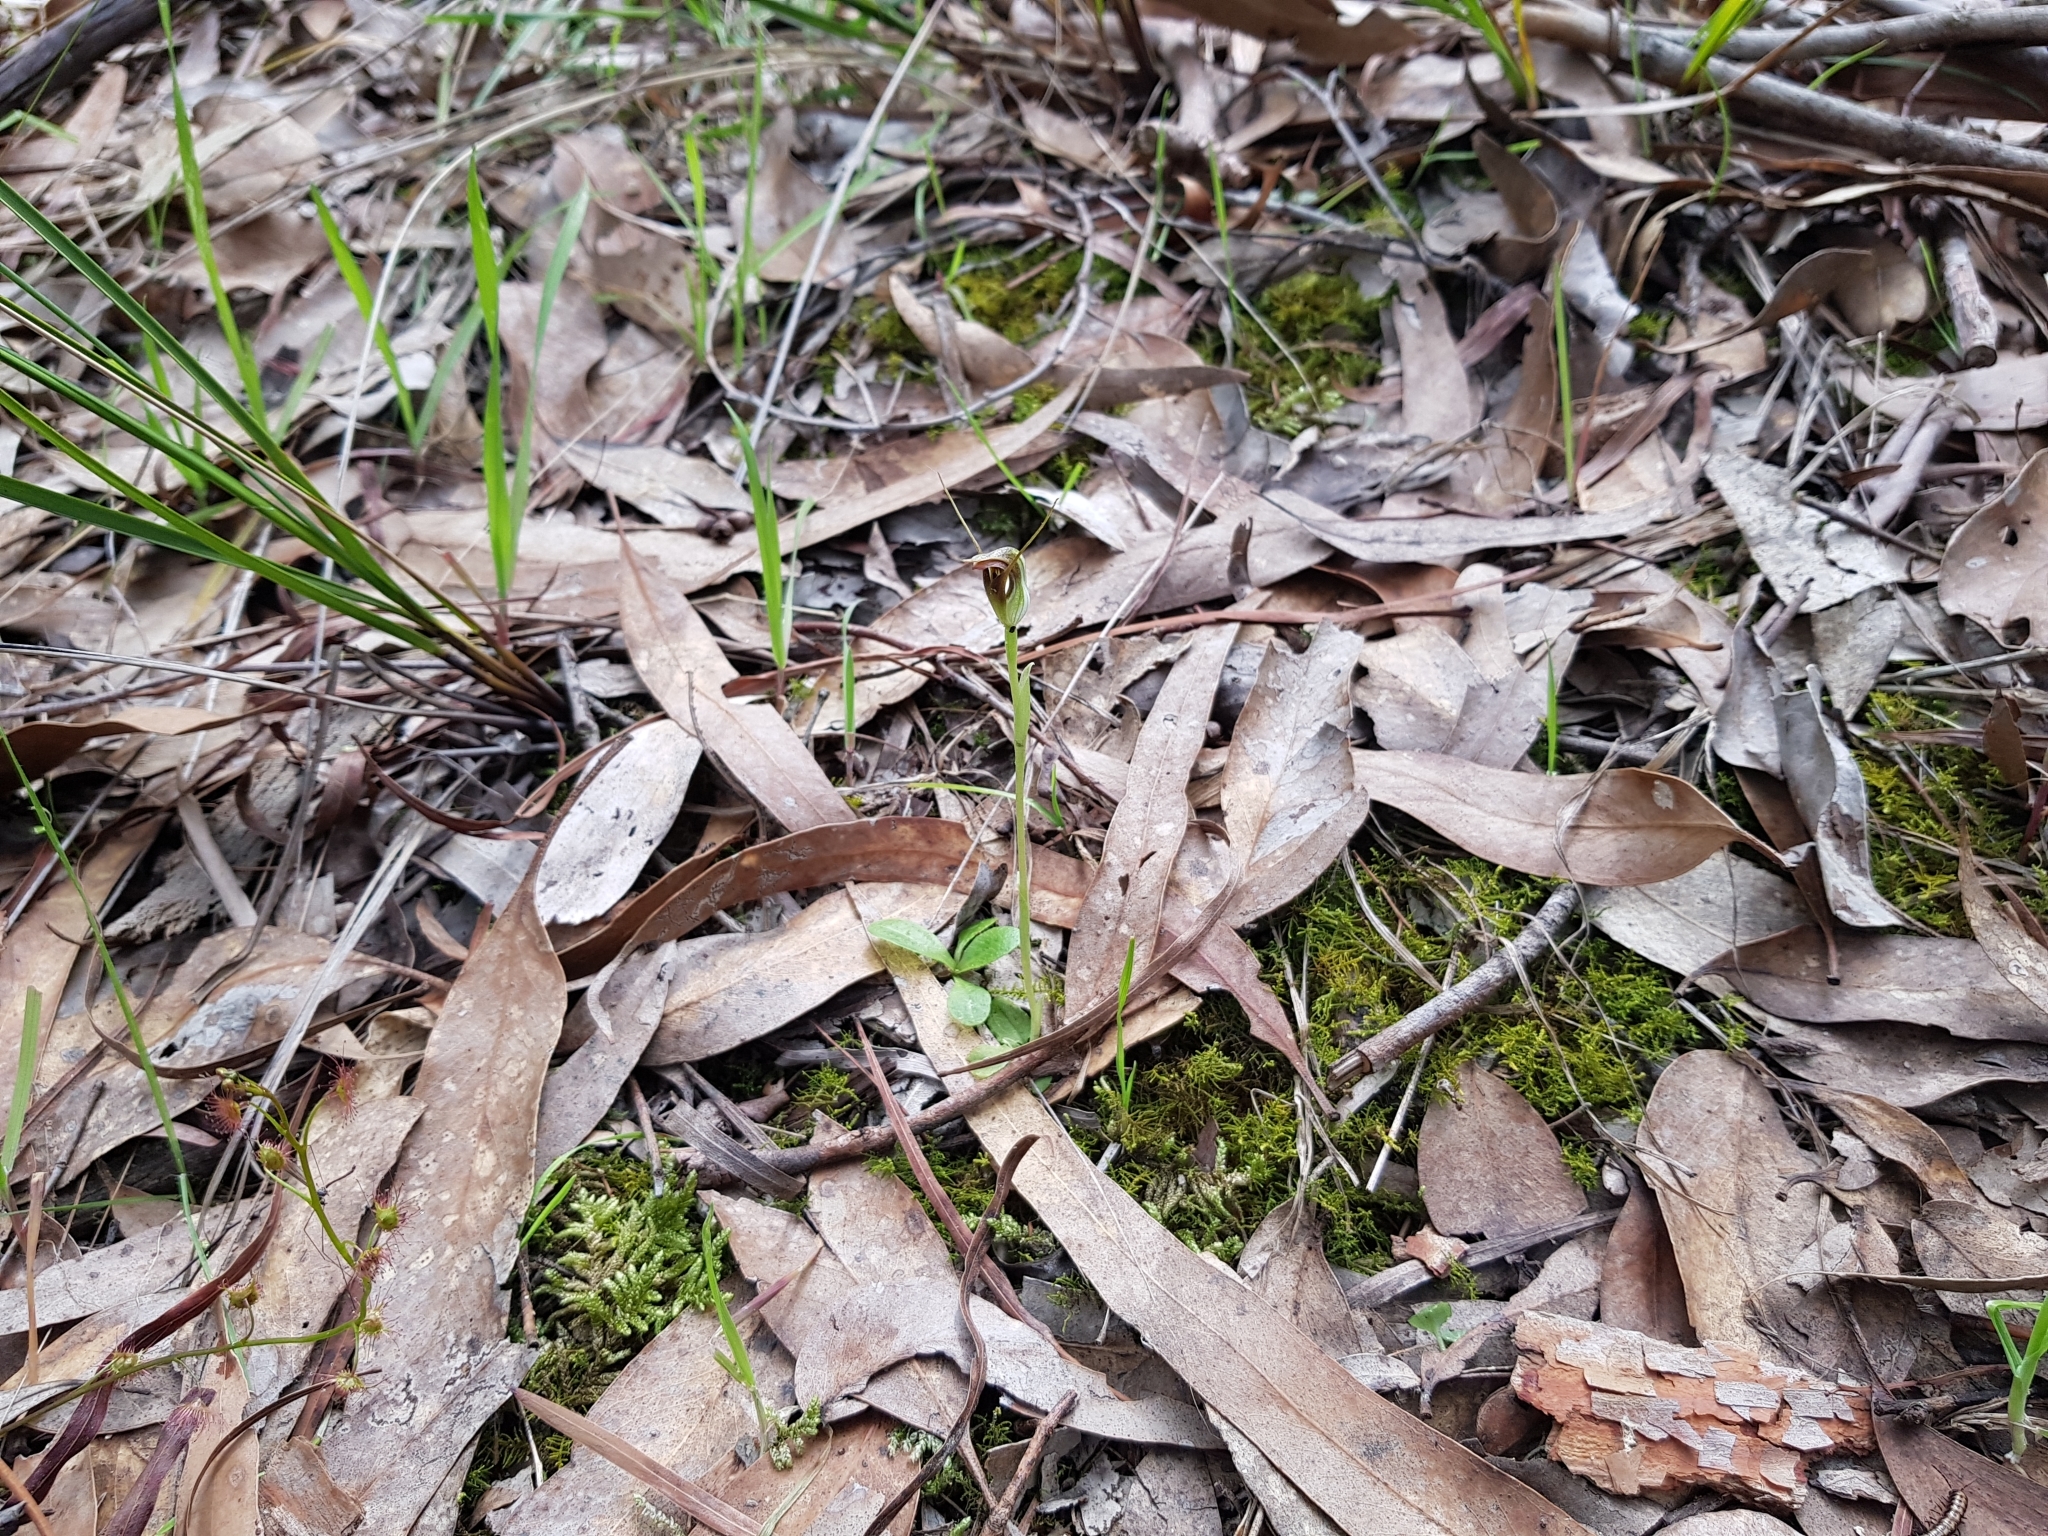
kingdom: Plantae
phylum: Tracheophyta
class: Liliopsida
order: Asparagales
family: Orchidaceae
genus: Pterostylis
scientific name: Pterostylis pedunculata
